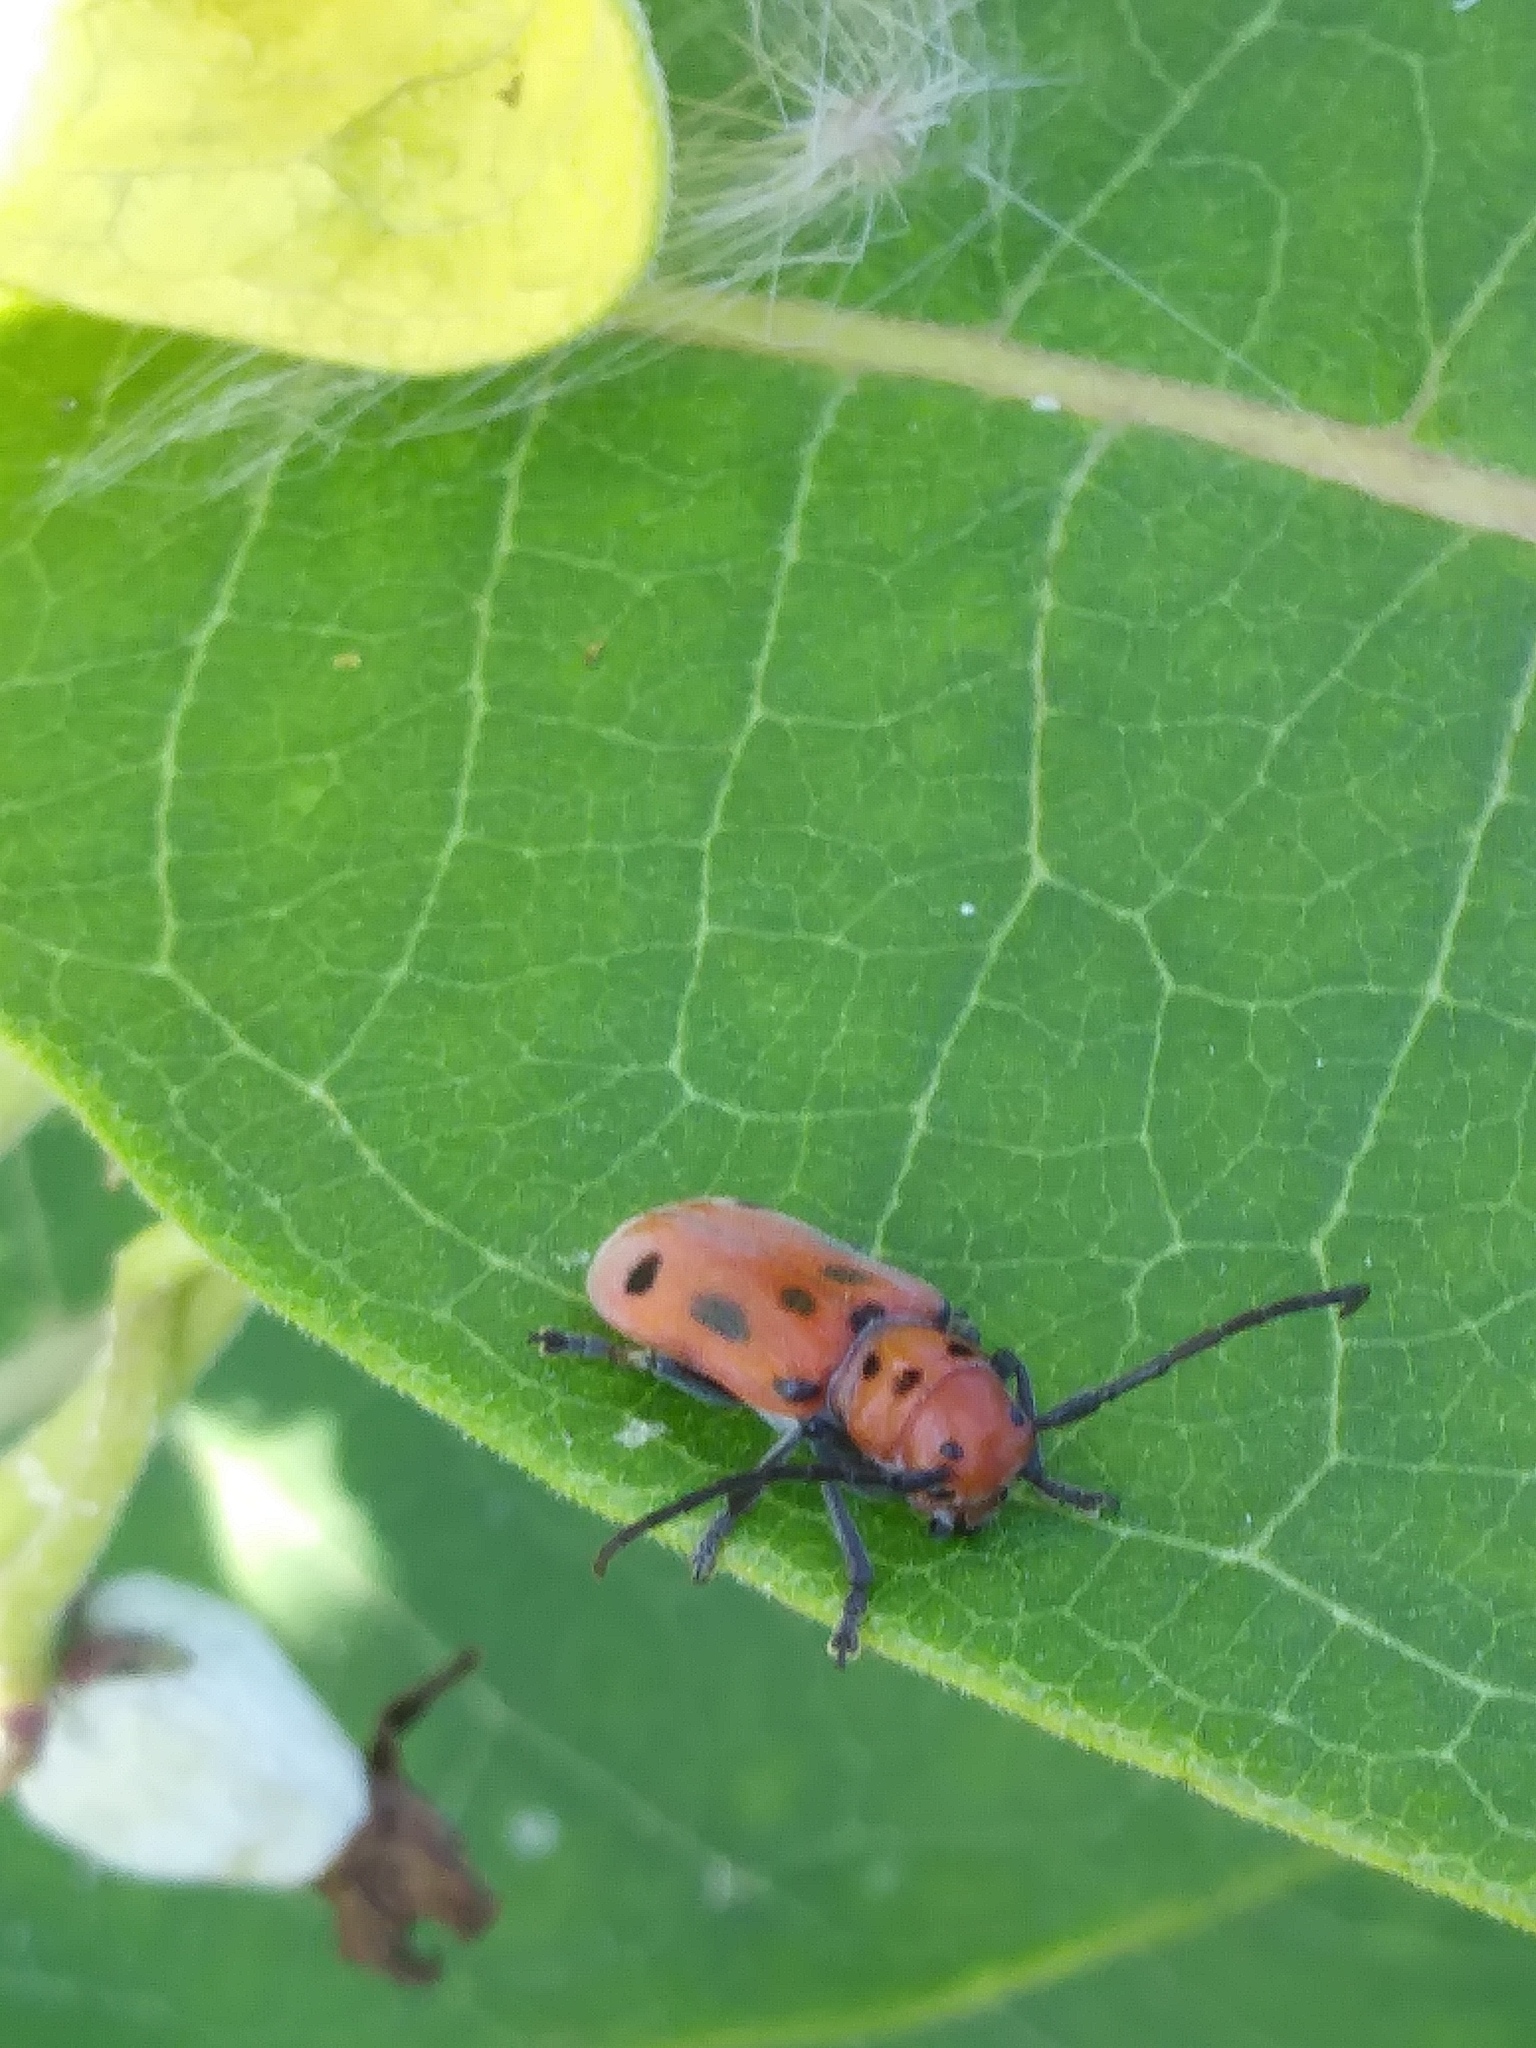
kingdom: Animalia
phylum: Arthropoda
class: Insecta
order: Coleoptera
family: Cerambycidae
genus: Tetraopes
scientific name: Tetraopes tetrophthalmus
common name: Red milkweed beetle
